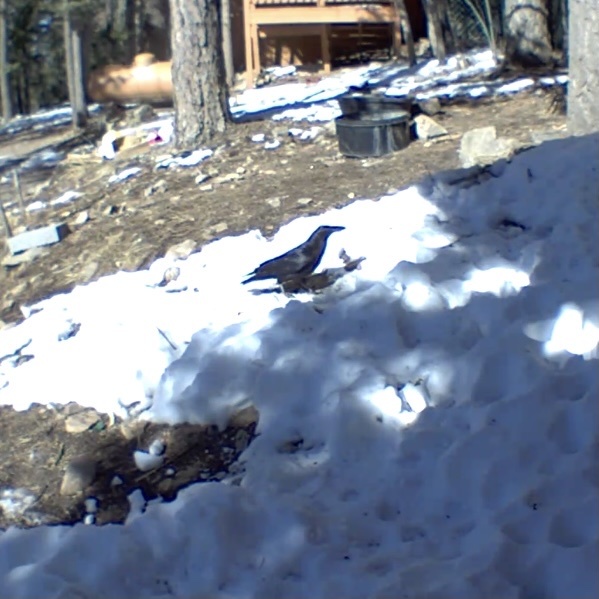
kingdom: Animalia
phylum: Chordata
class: Aves
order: Passeriformes
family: Corvidae
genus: Corvus
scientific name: Corvus corax
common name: Common raven
